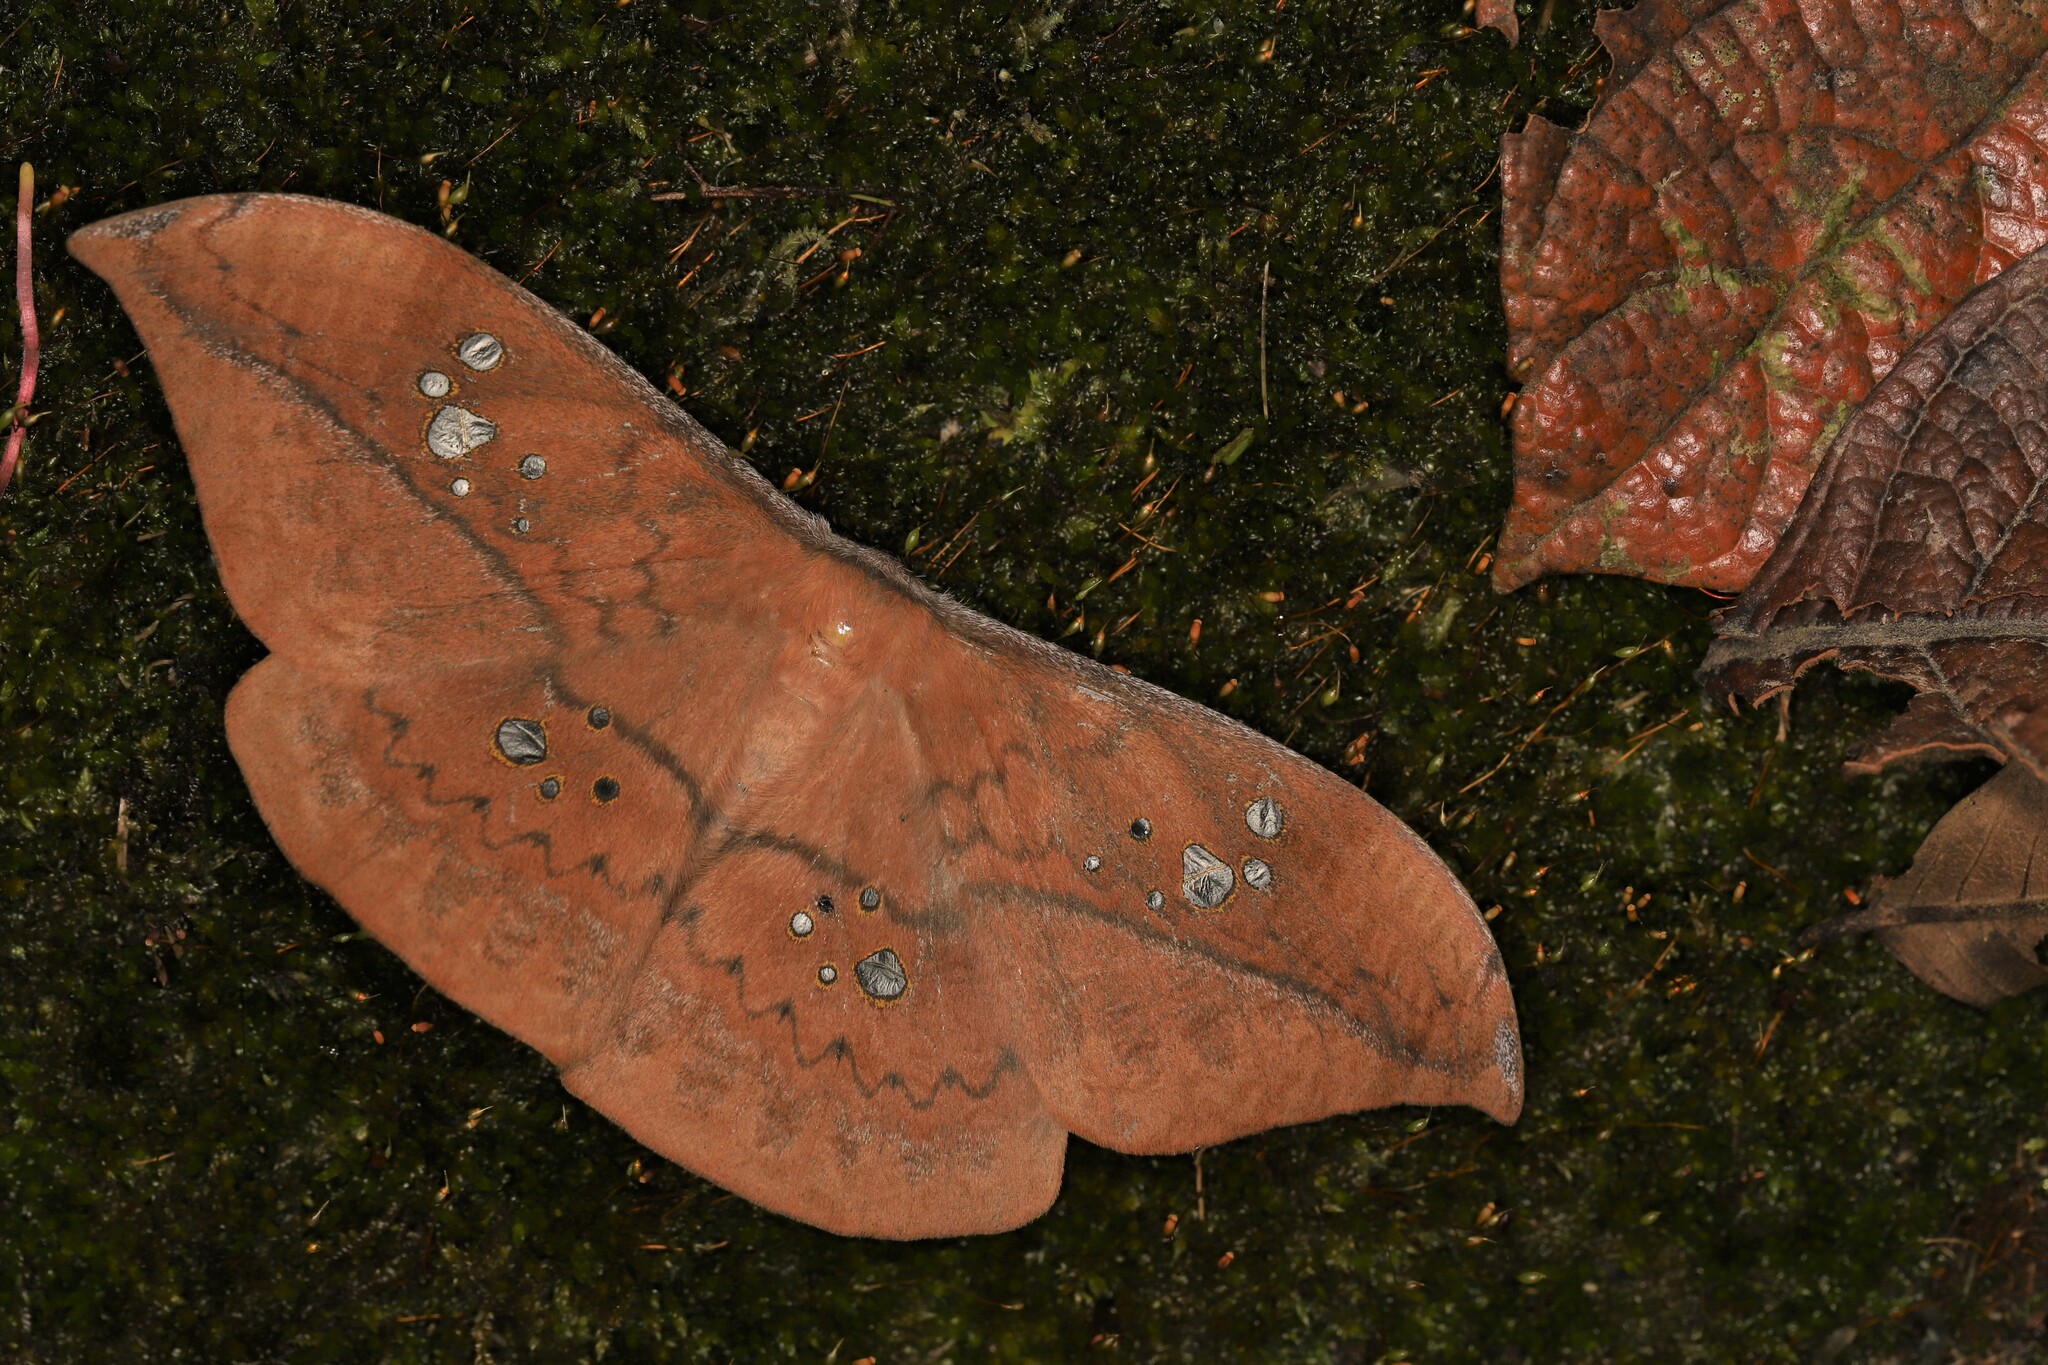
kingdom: Animalia
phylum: Arthropoda
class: Insecta
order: Lepidoptera
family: Saturniidae
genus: Copaxa
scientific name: Copaxa multifenestrata
